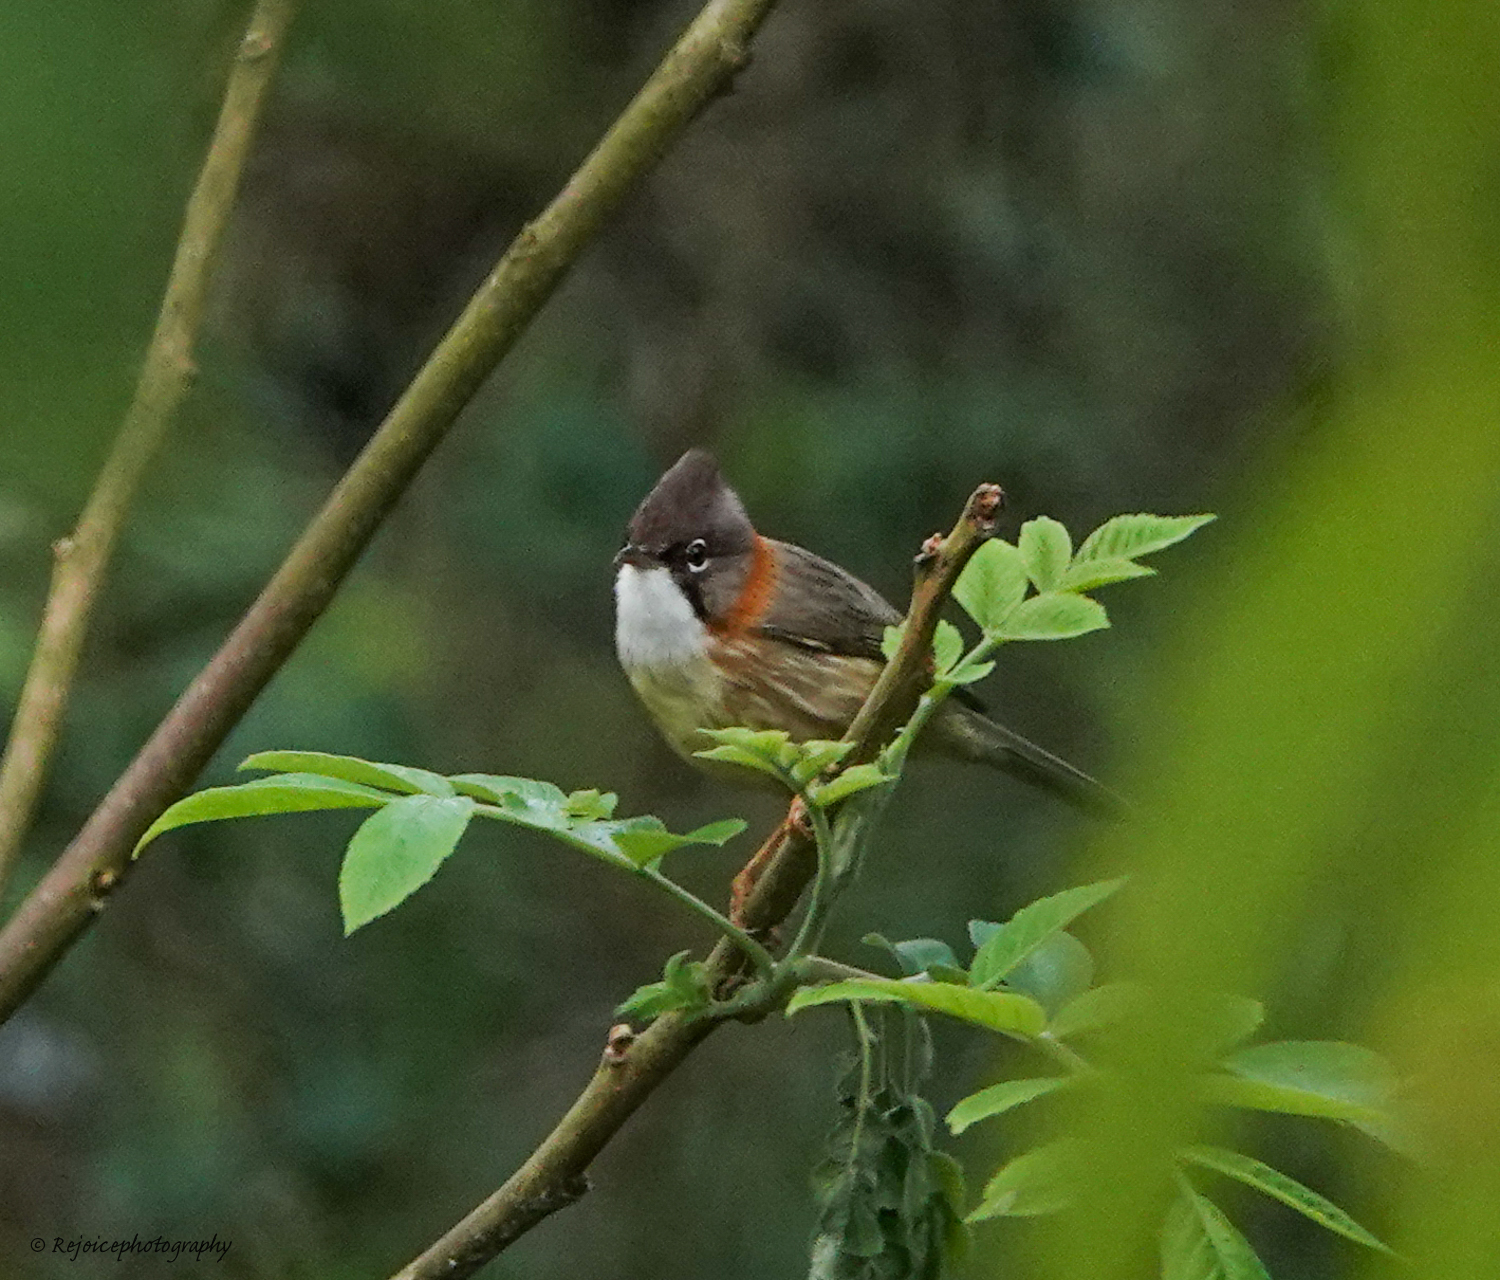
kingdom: Animalia
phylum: Chordata
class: Aves
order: Passeriformes
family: Zosteropidae
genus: Yuhina
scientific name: Yuhina flavicollis
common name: Whiskered yuhina
